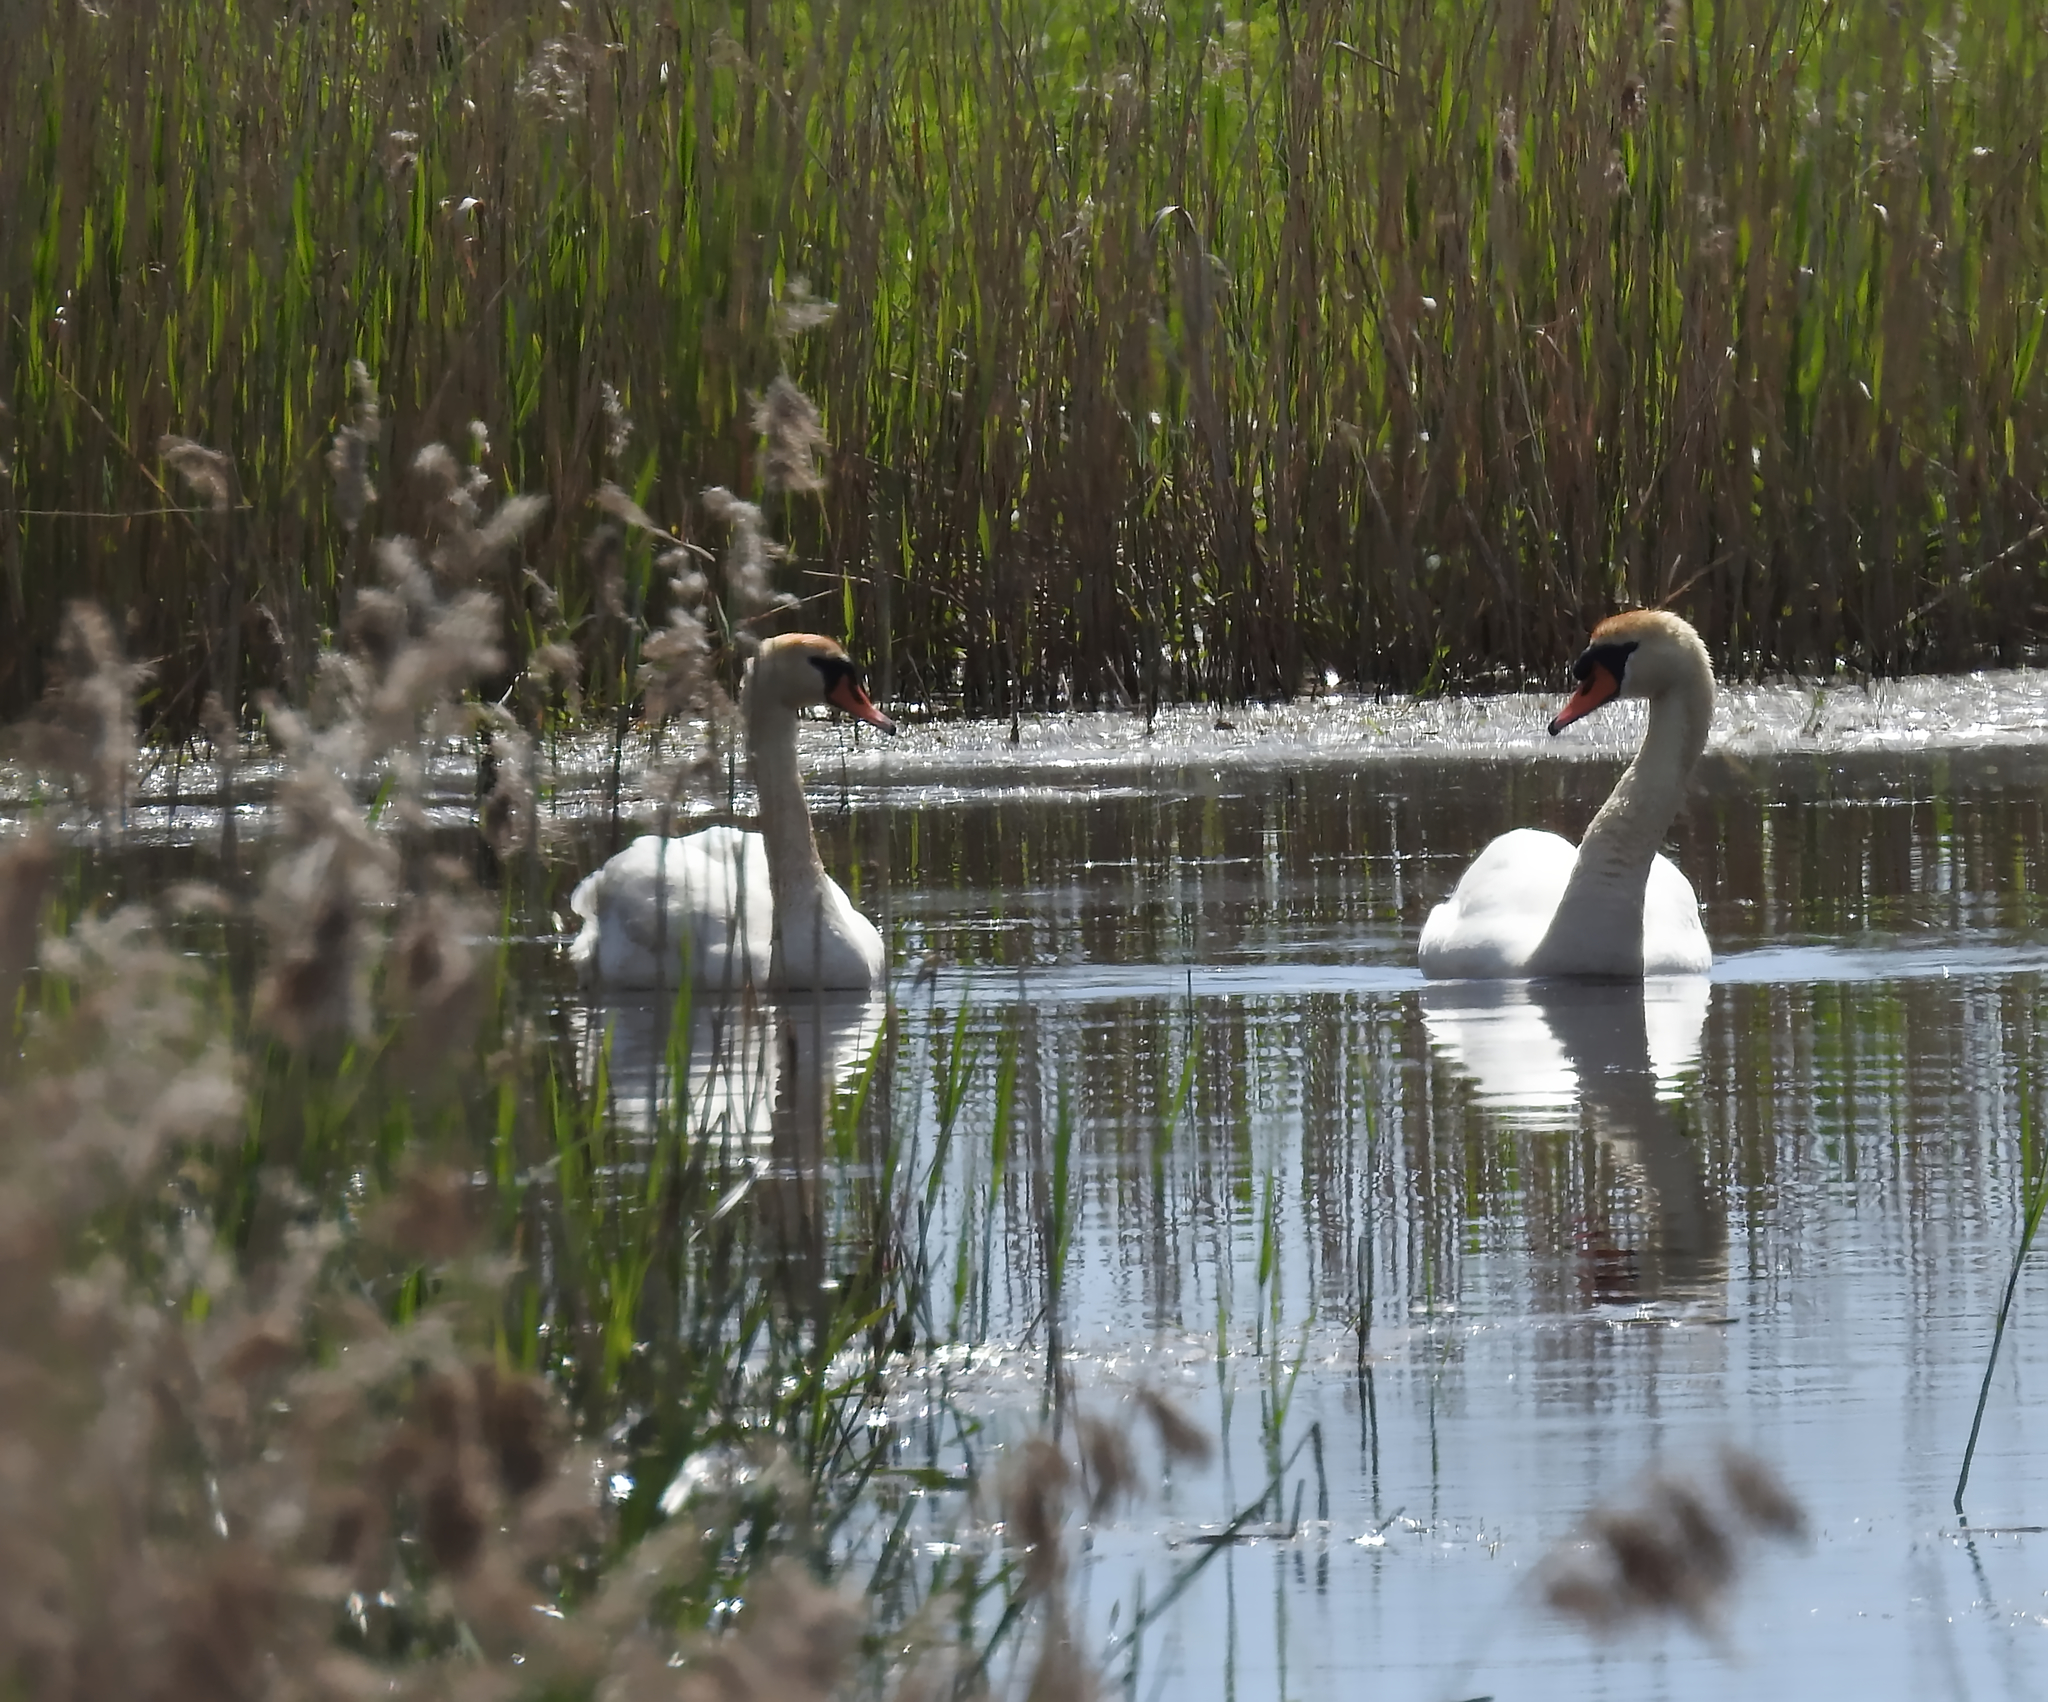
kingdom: Animalia
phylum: Chordata
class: Aves
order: Anseriformes
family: Anatidae
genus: Cygnus
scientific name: Cygnus olor
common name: Mute swan
